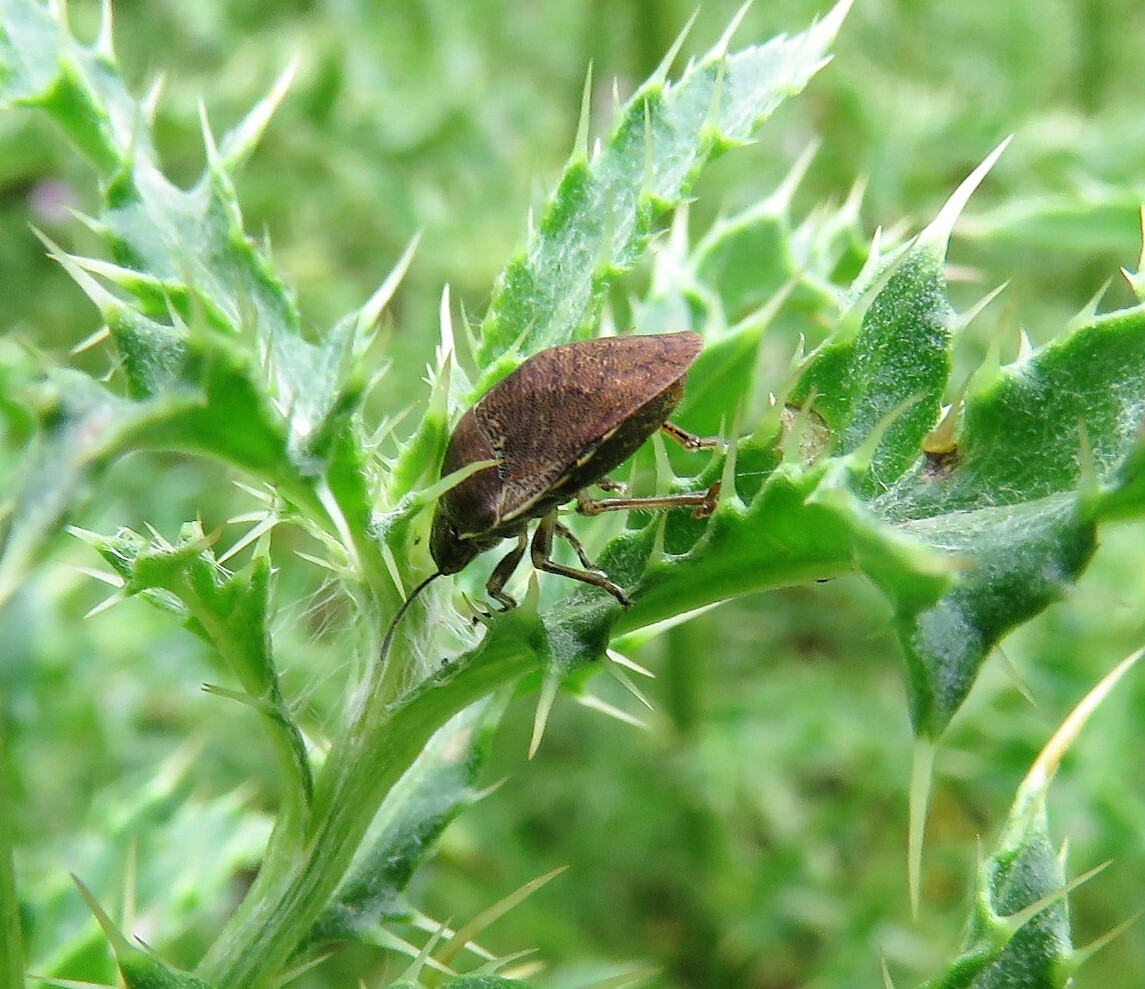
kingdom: Animalia
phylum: Arthropoda
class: Insecta
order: Hemiptera
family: Scutelleridae
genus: Homaemus
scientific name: Homaemus aeneifrons
